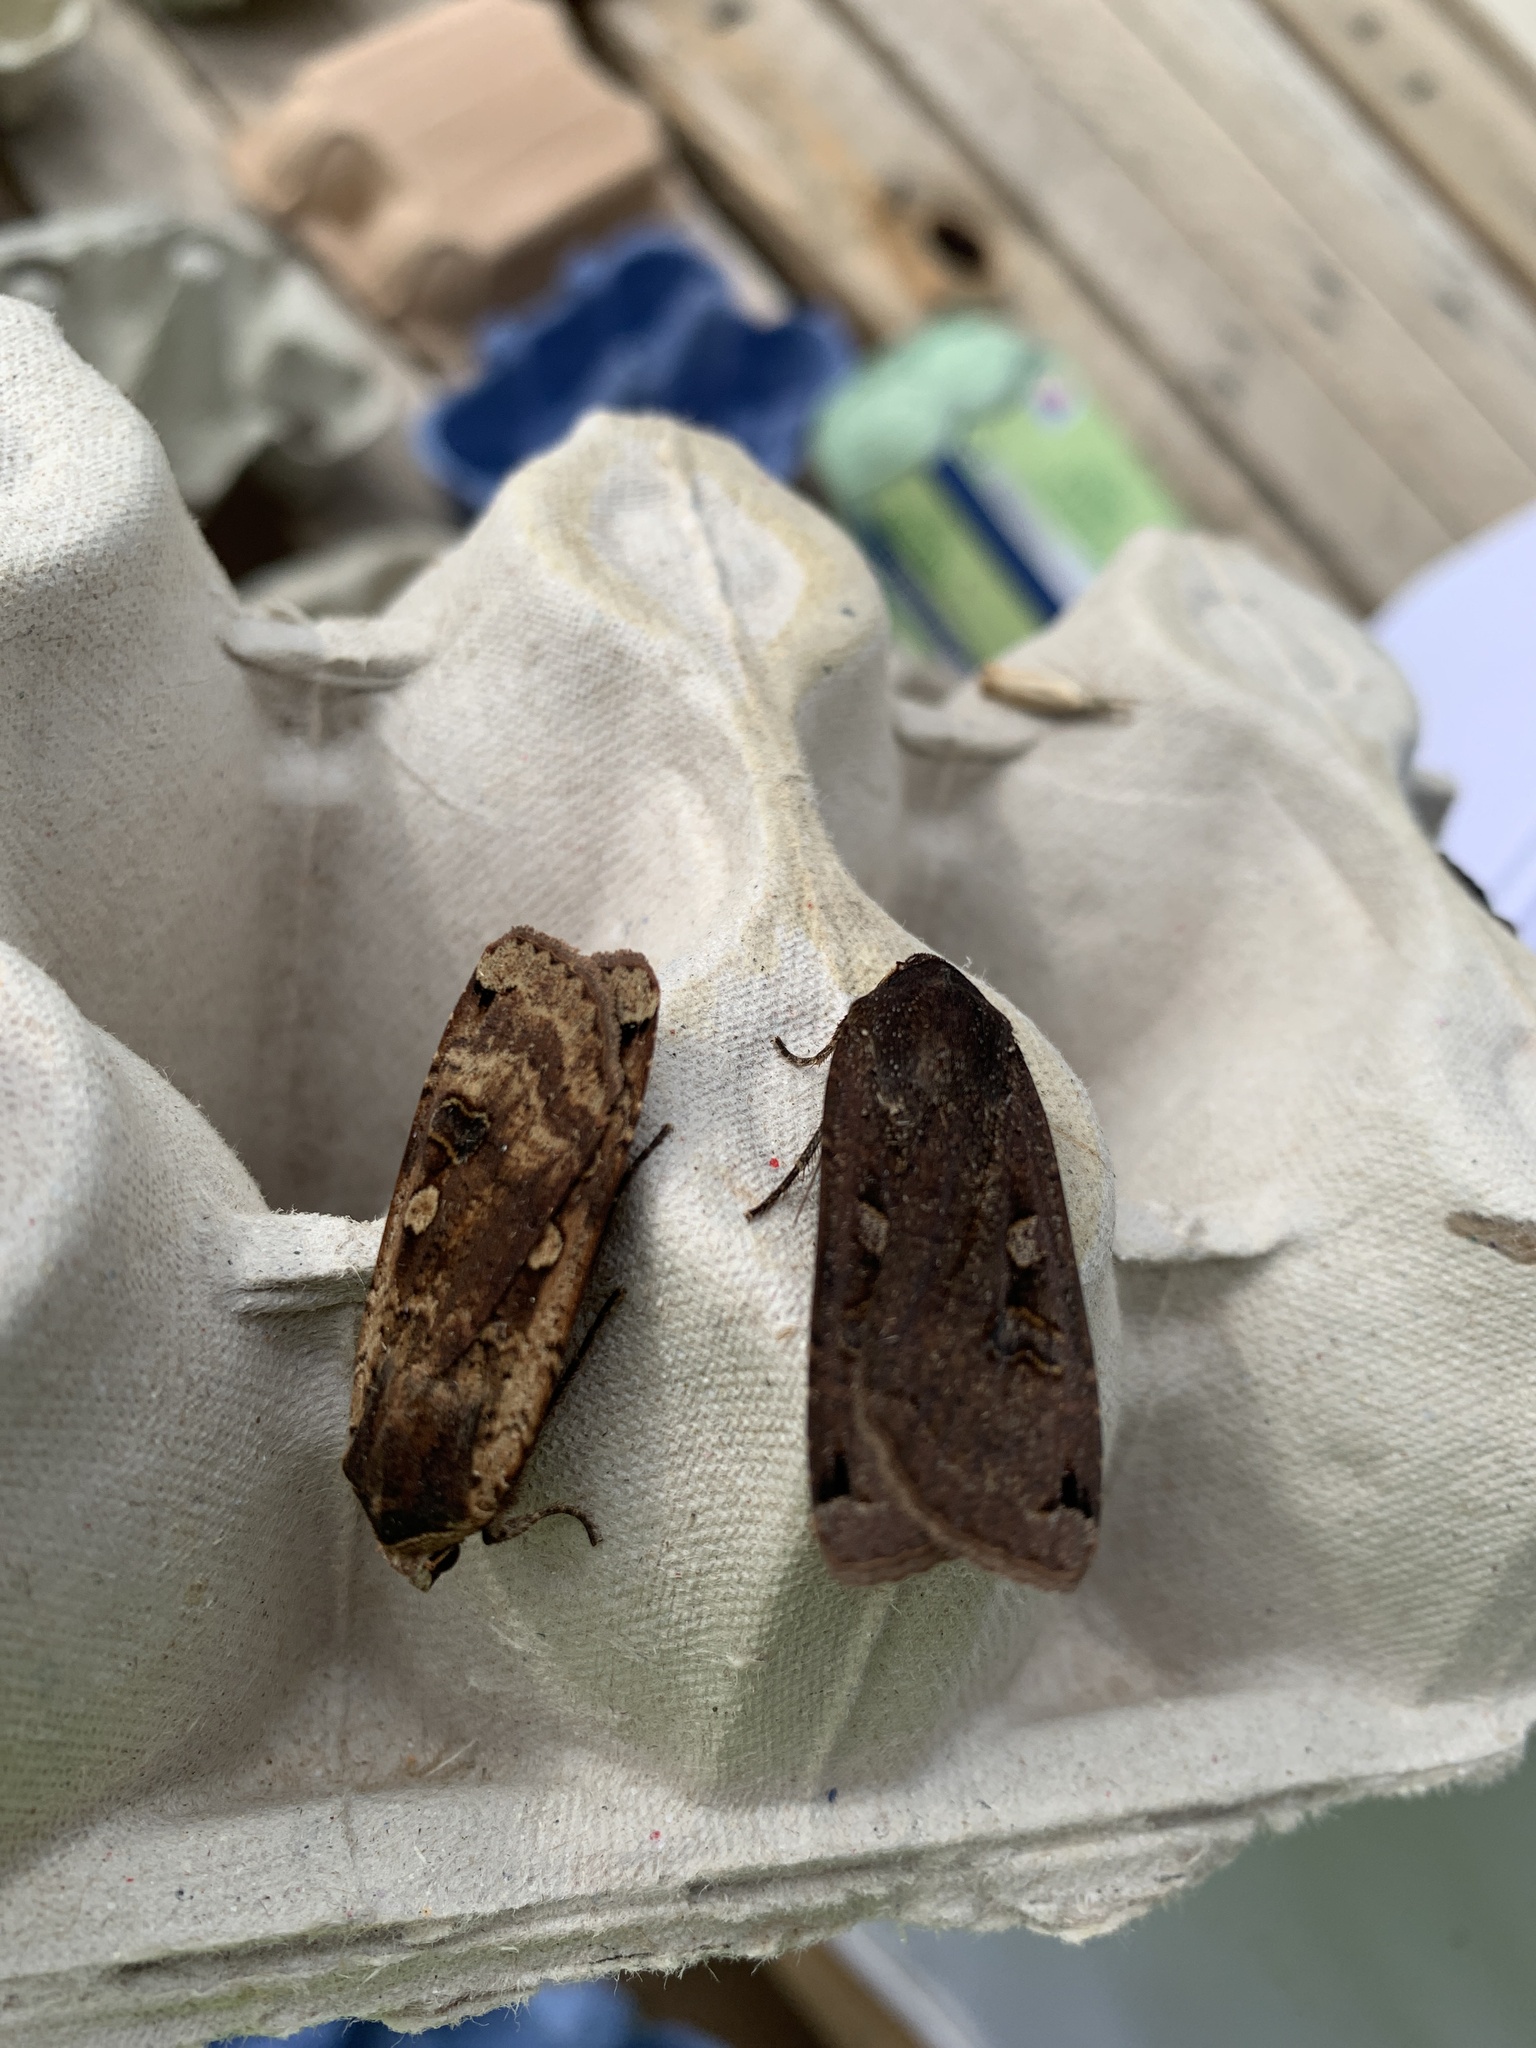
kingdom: Animalia
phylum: Arthropoda
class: Insecta
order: Lepidoptera
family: Noctuidae
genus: Noctua
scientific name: Noctua pronuba
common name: Large yellow underwing
